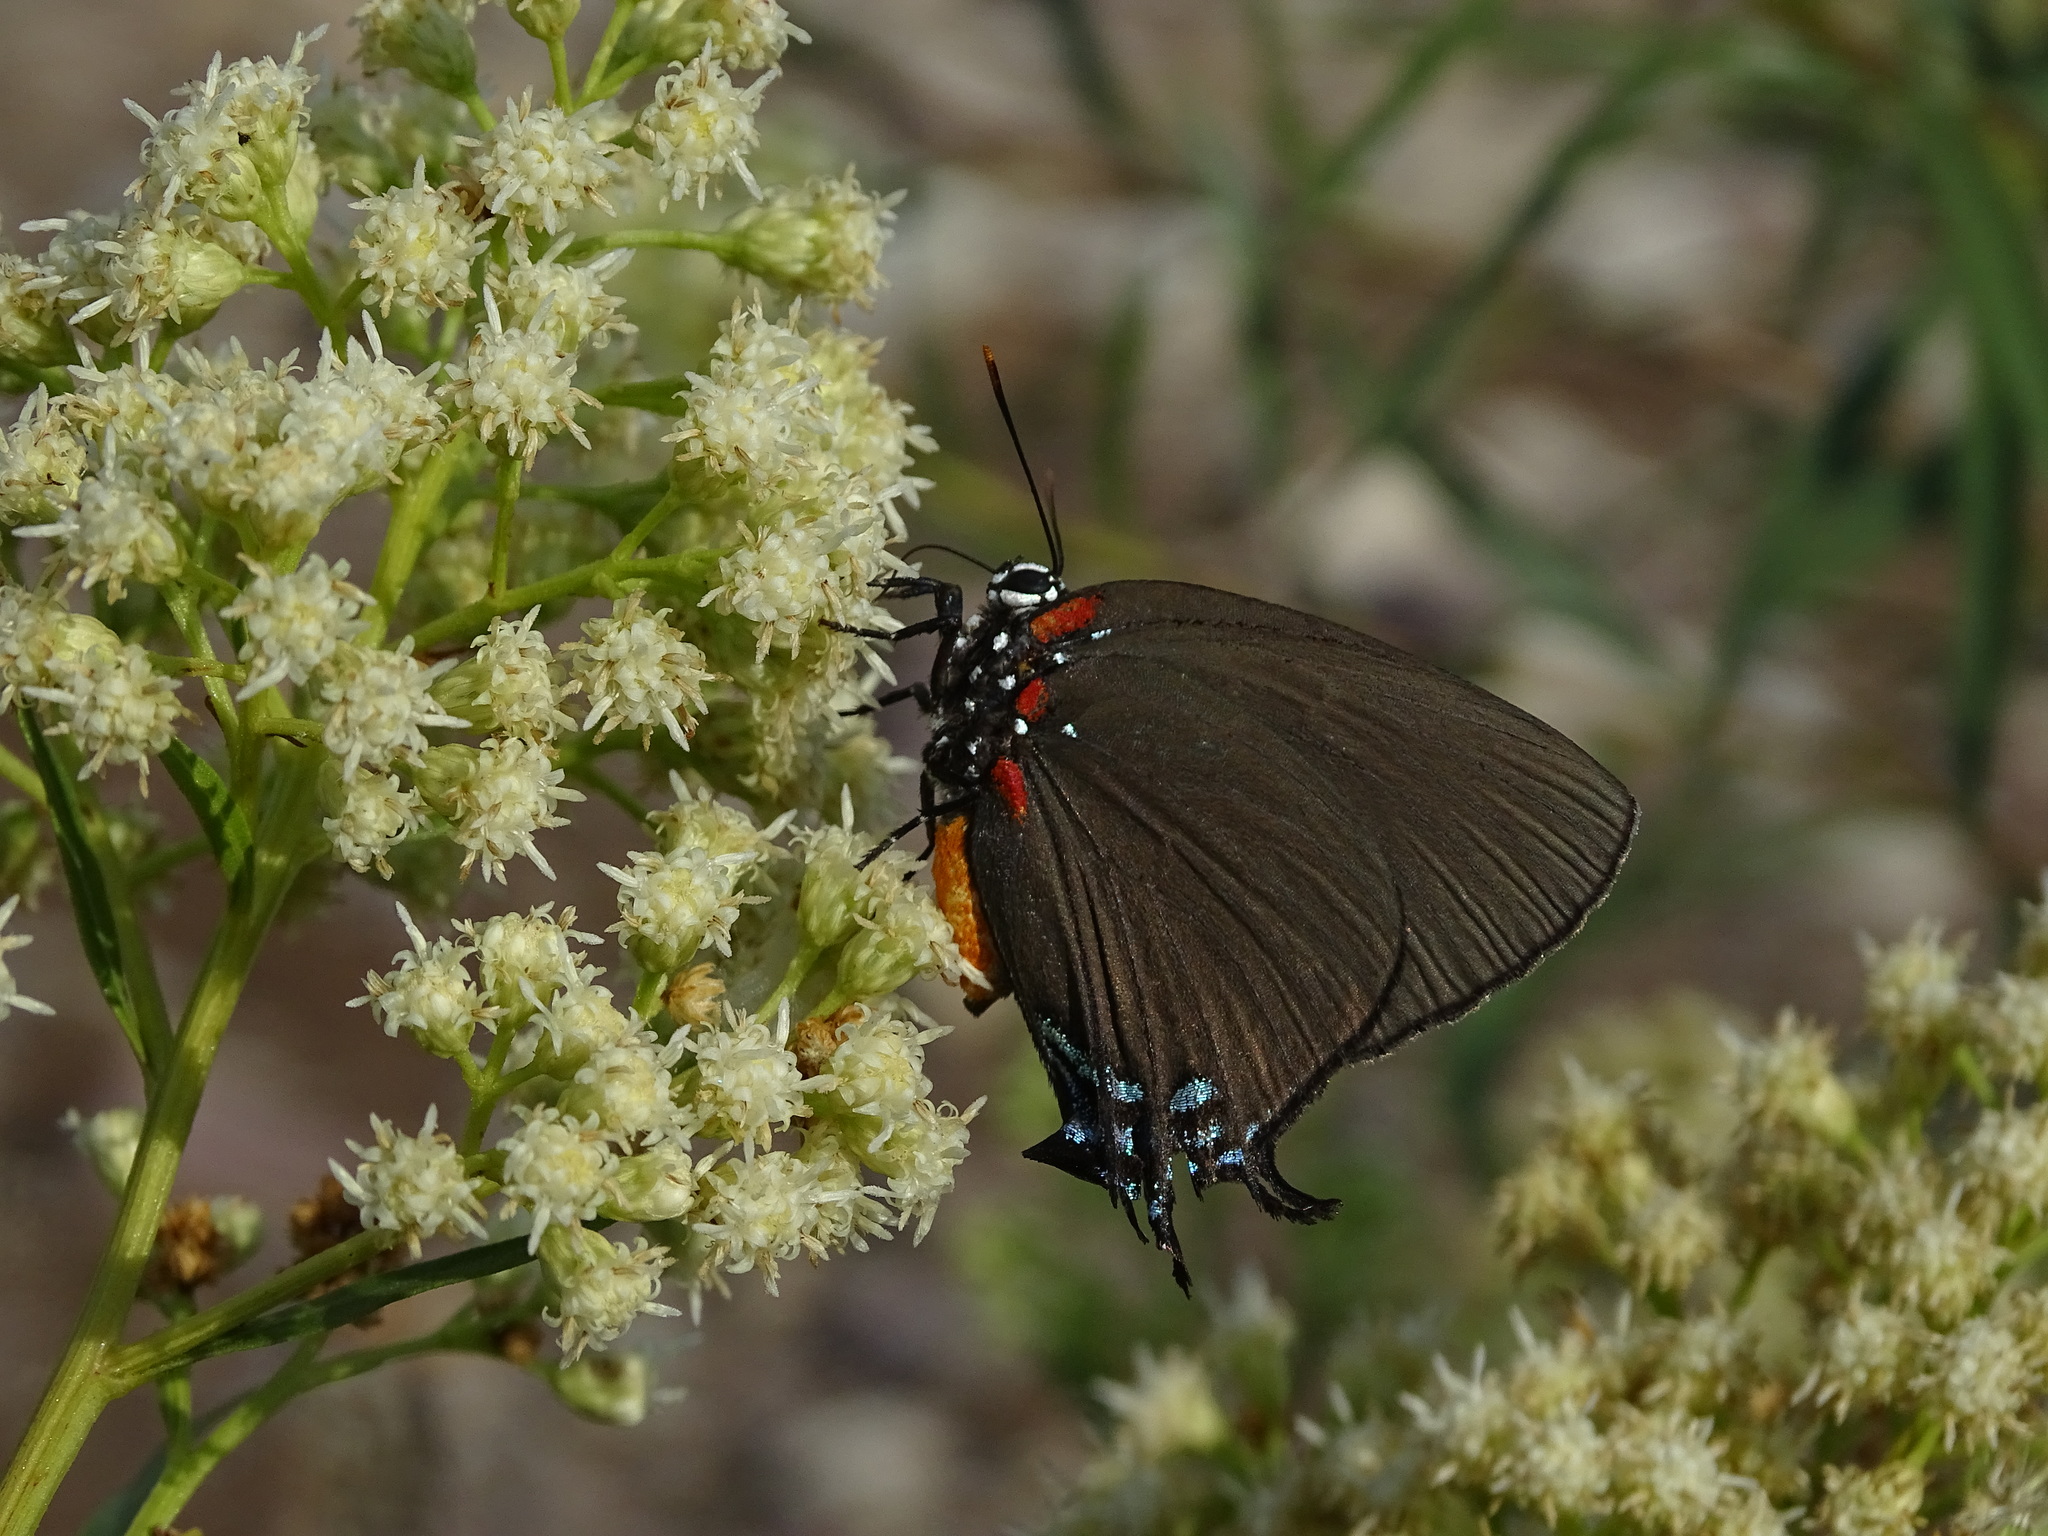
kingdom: Animalia
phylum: Arthropoda
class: Insecta
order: Lepidoptera
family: Lycaenidae
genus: Atlides
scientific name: Atlides halesus
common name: Great purple hairstreak
